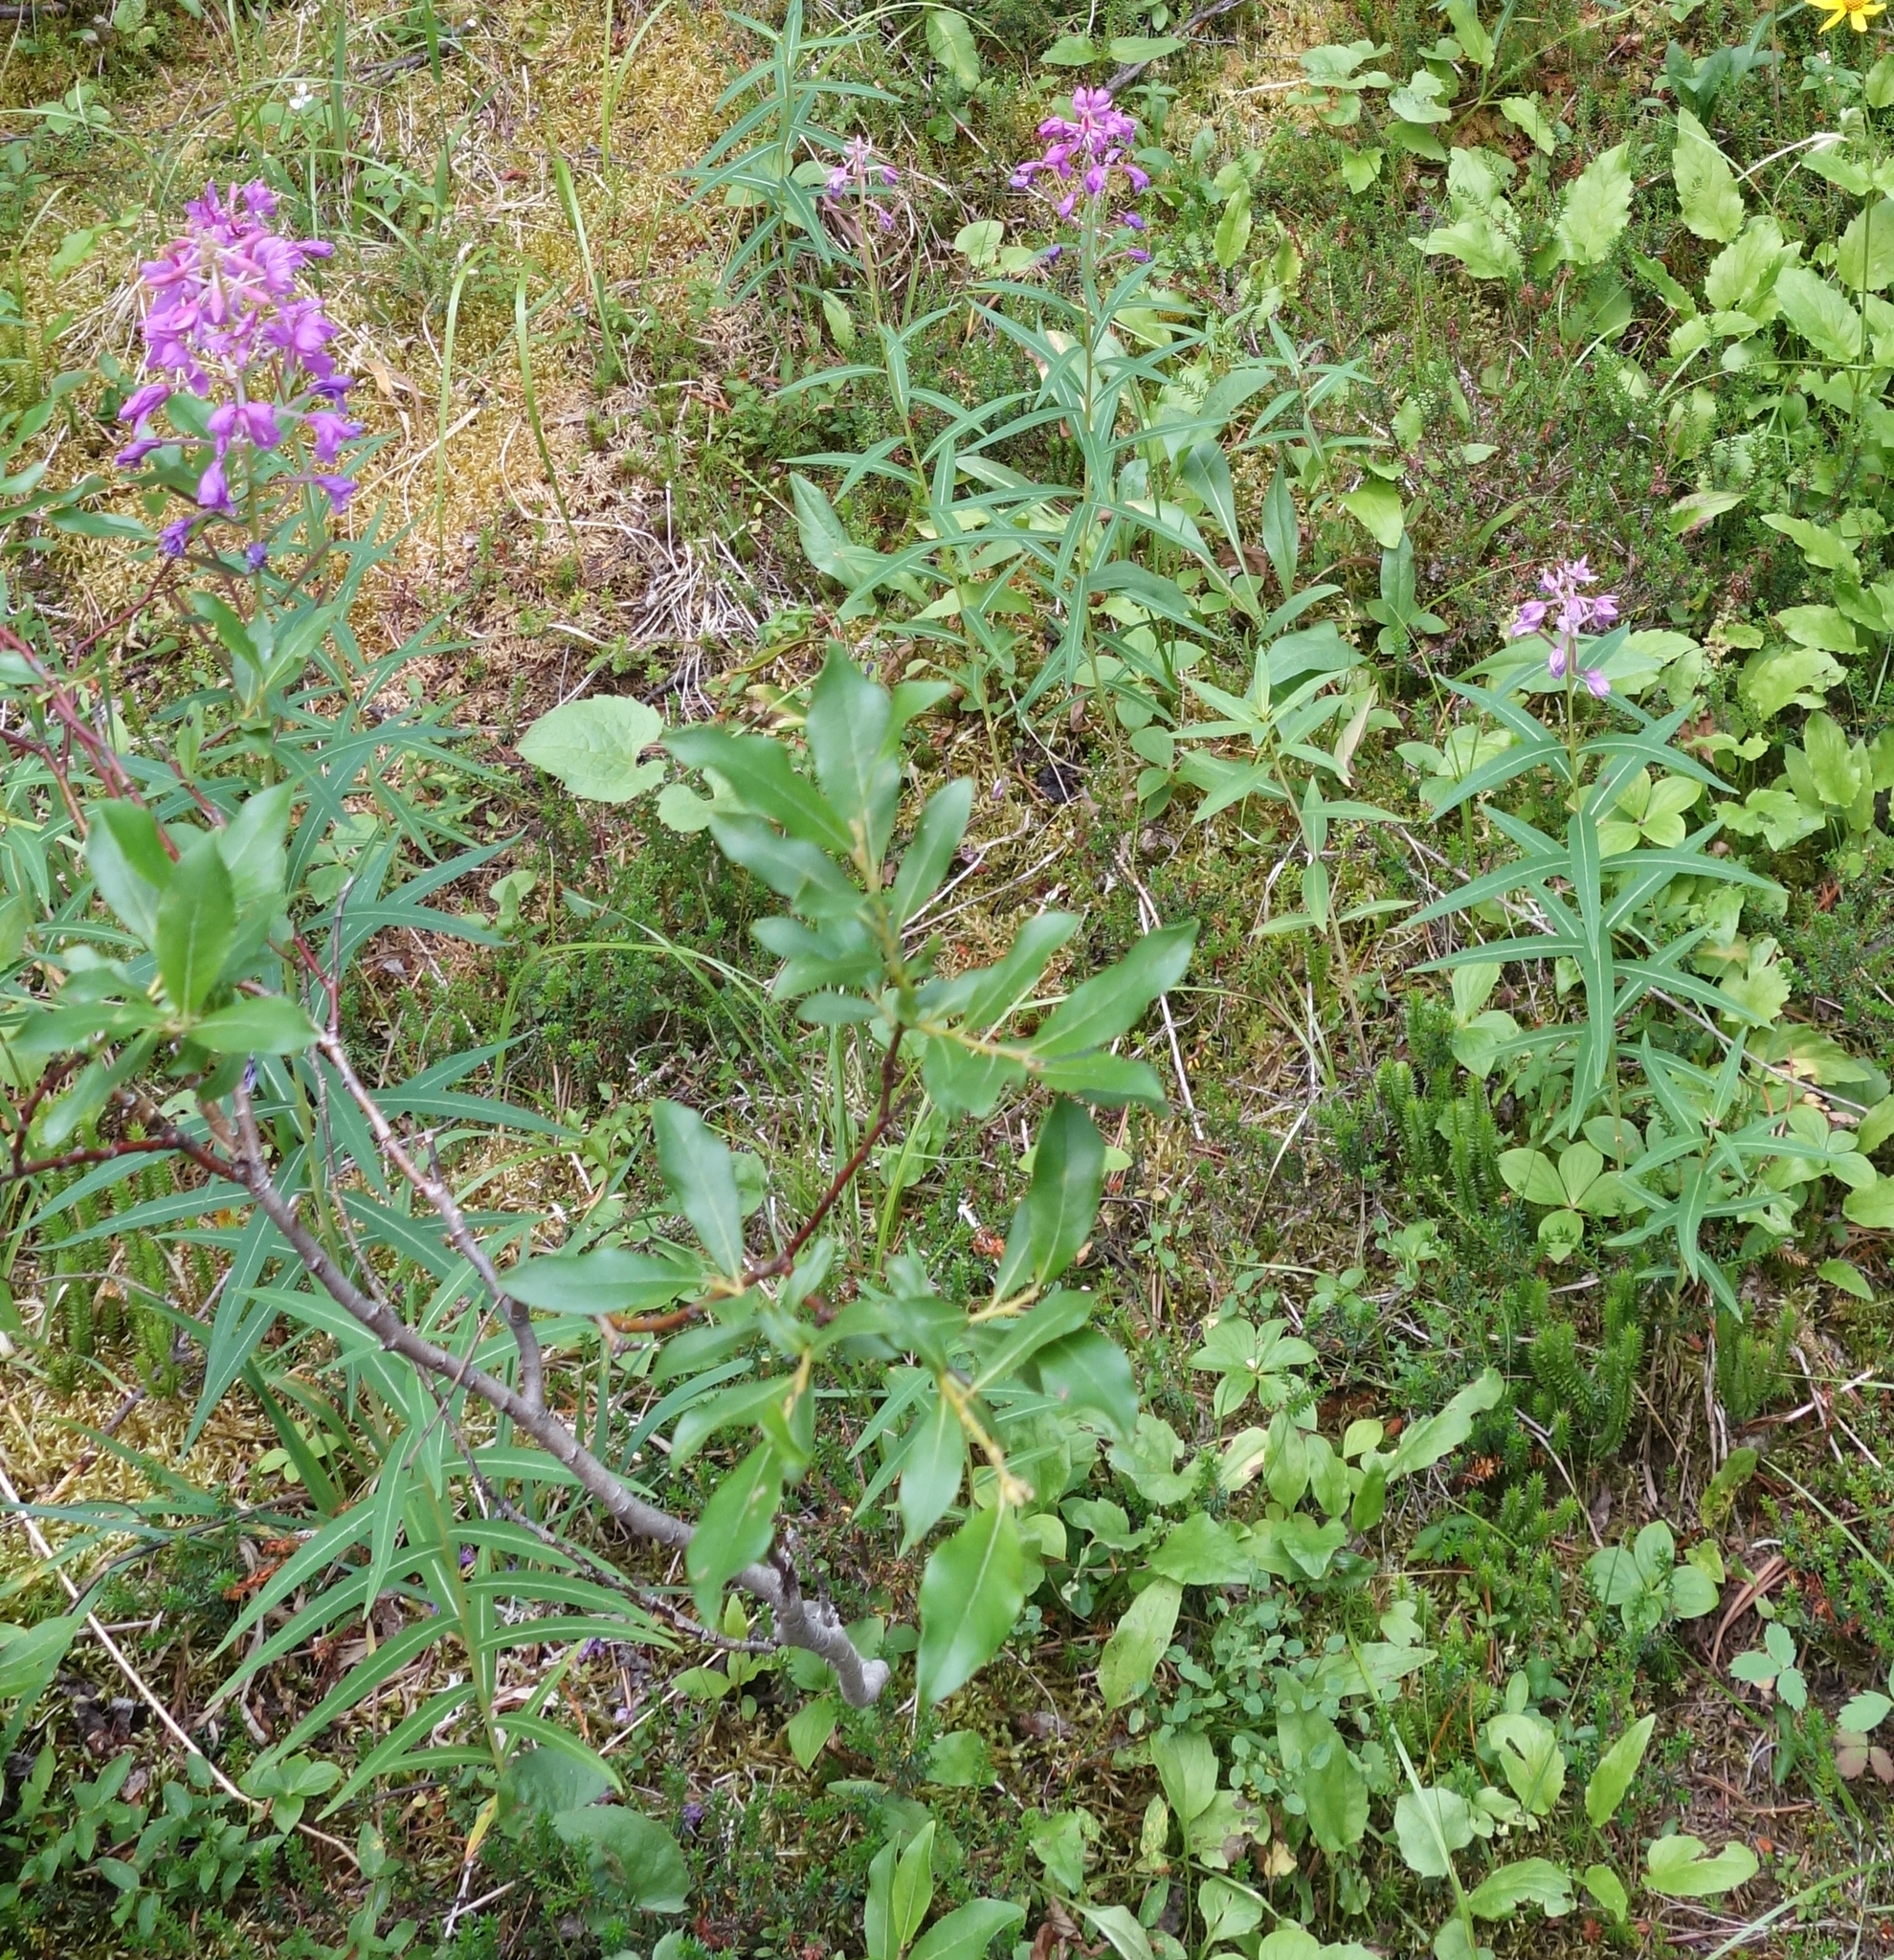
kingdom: Plantae
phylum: Tracheophyta
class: Magnoliopsida
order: Myrtales
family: Onagraceae
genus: Chamaenerion
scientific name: Chamaenerion angustifolium
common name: Fireweed
